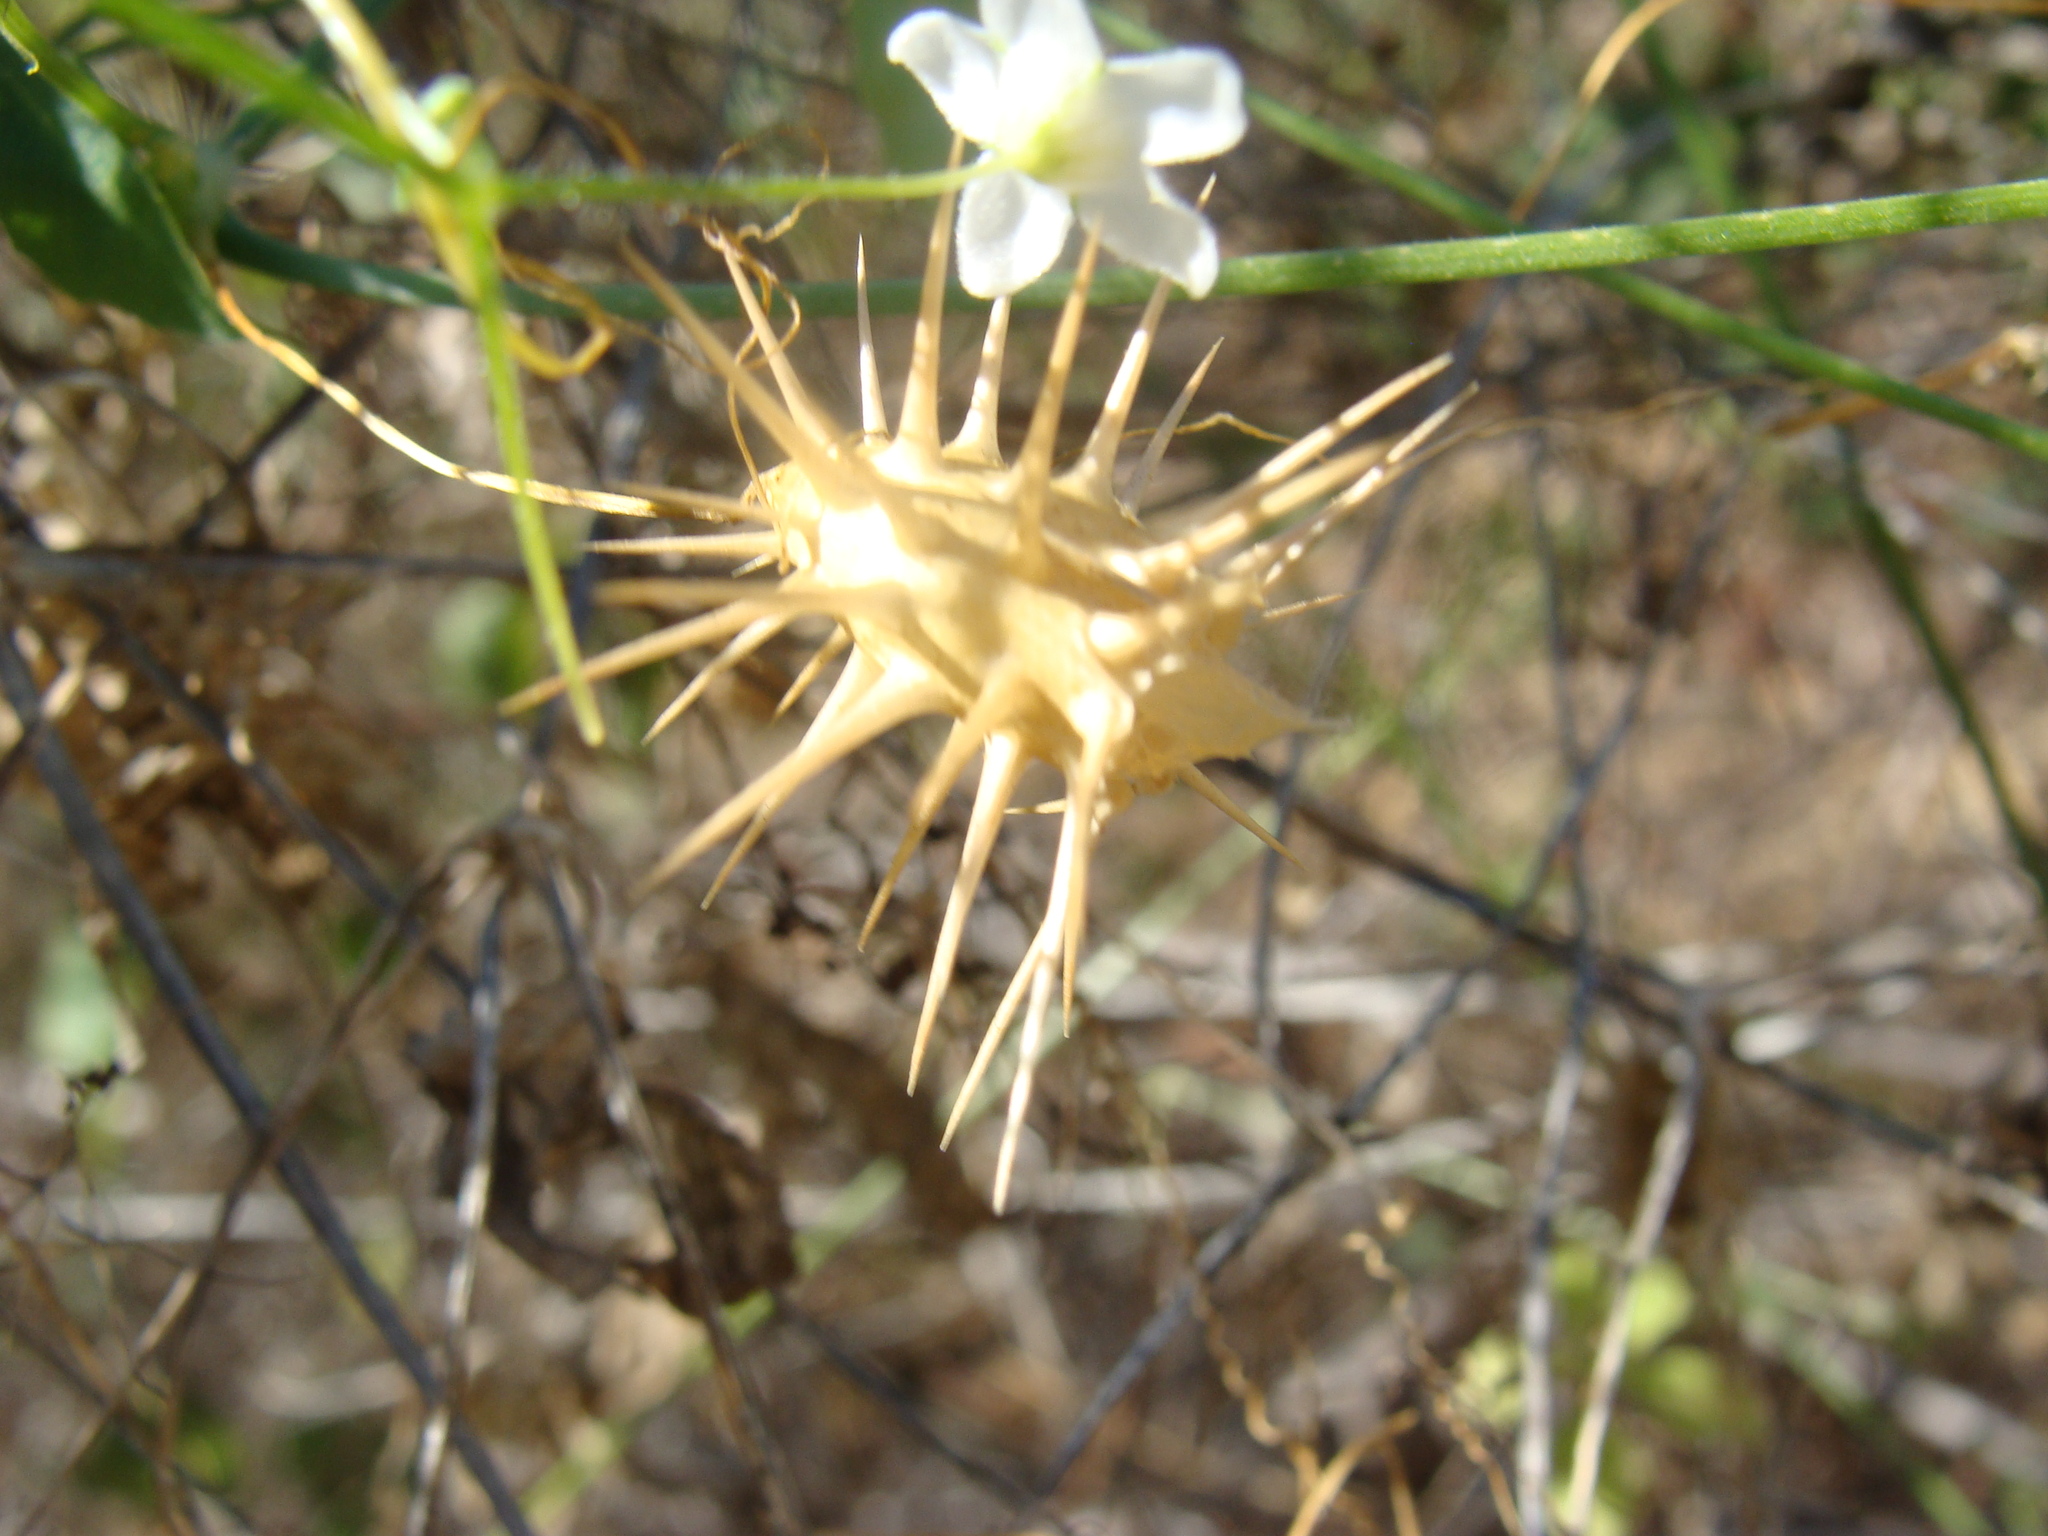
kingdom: Plantae
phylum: Tracheophyta
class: Magnoliopsida
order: Cucurbitales
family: Cucurbitaceae
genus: Echinopepon
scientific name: Echinopepon minimus
